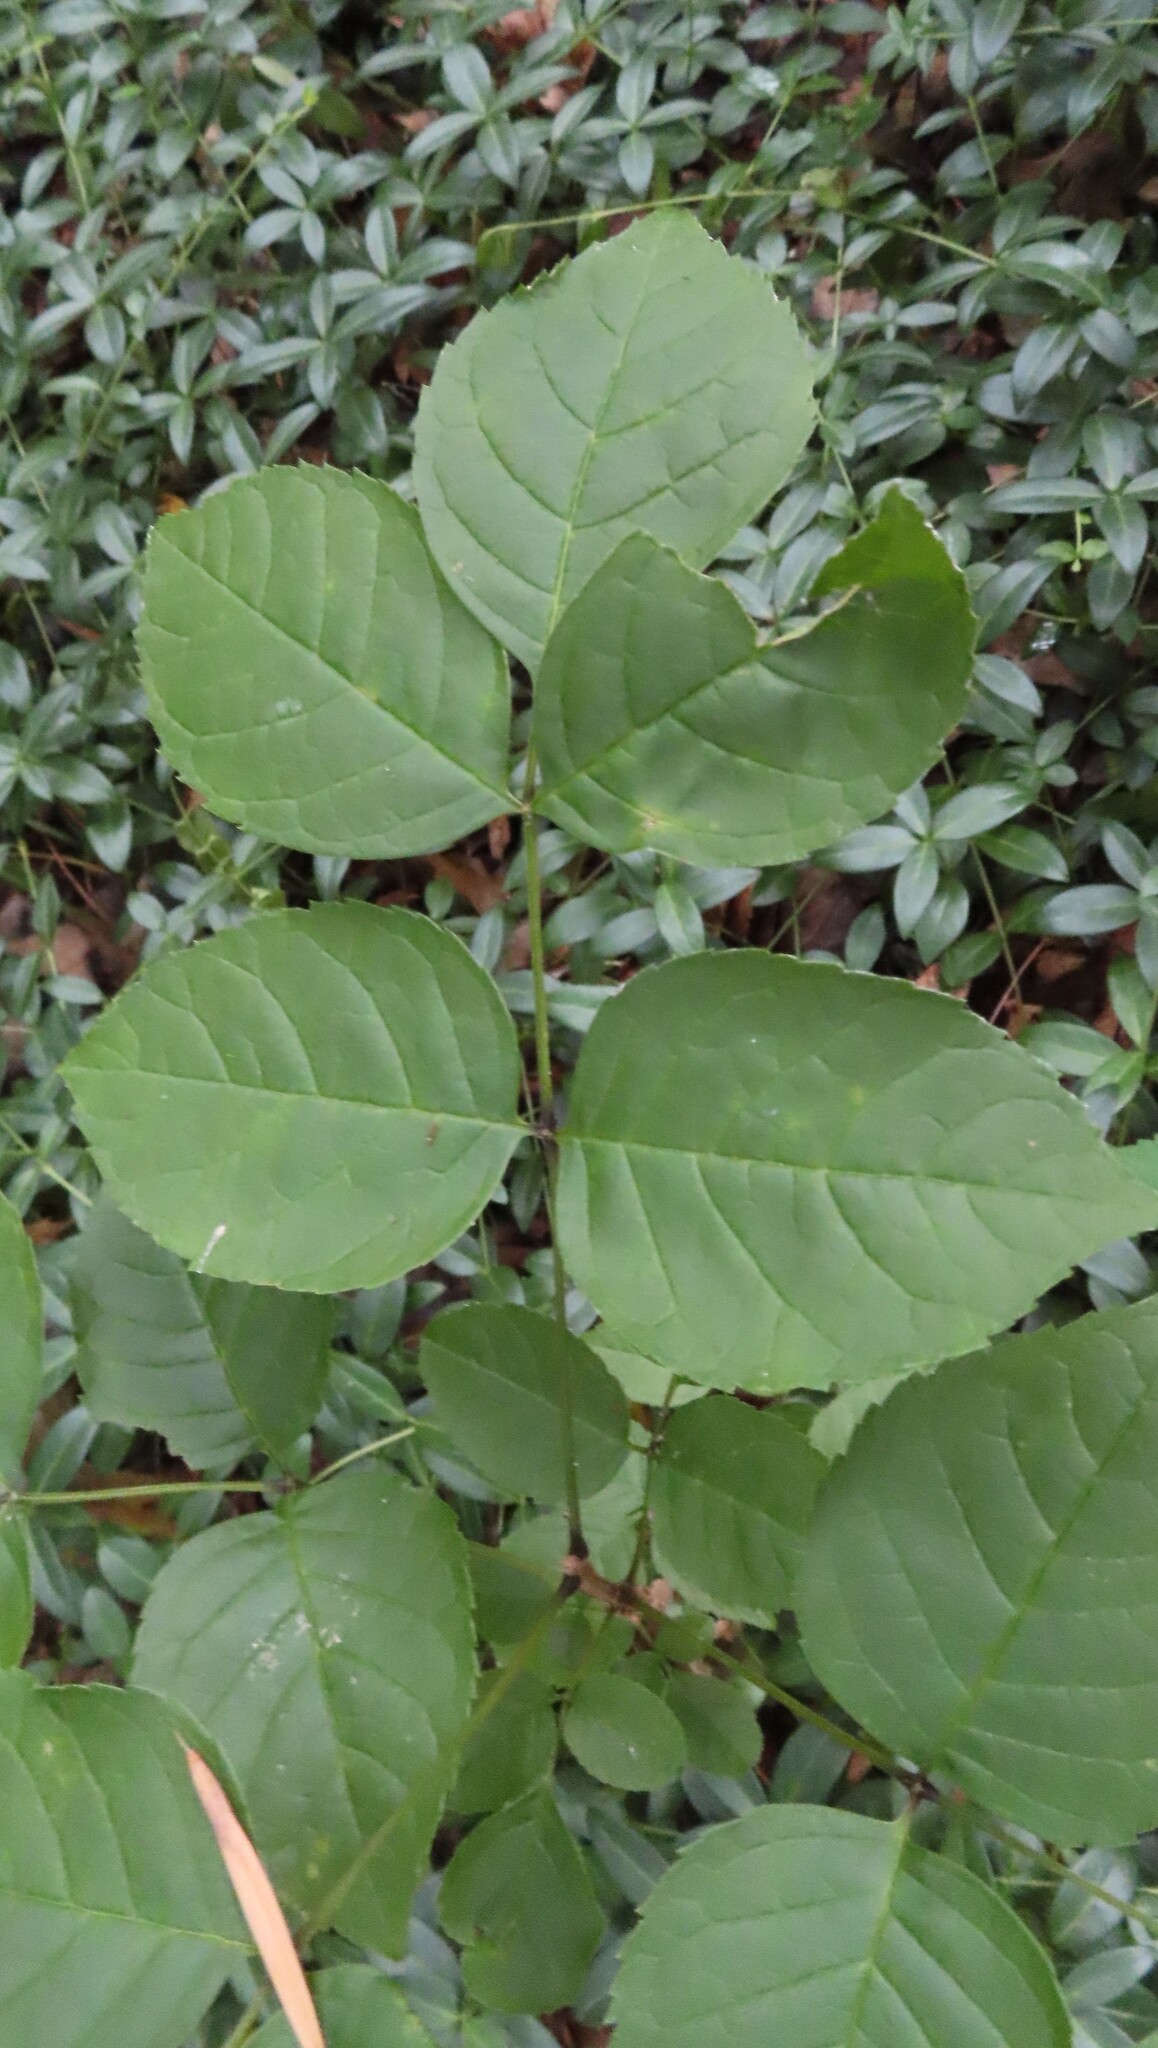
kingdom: Plantae
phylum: Tracheophyta
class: Magnoliopsida
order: Lamiales
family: Oleaceae
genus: Fraxinus
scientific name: Fraxinus quadrangulata
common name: Blue ash
